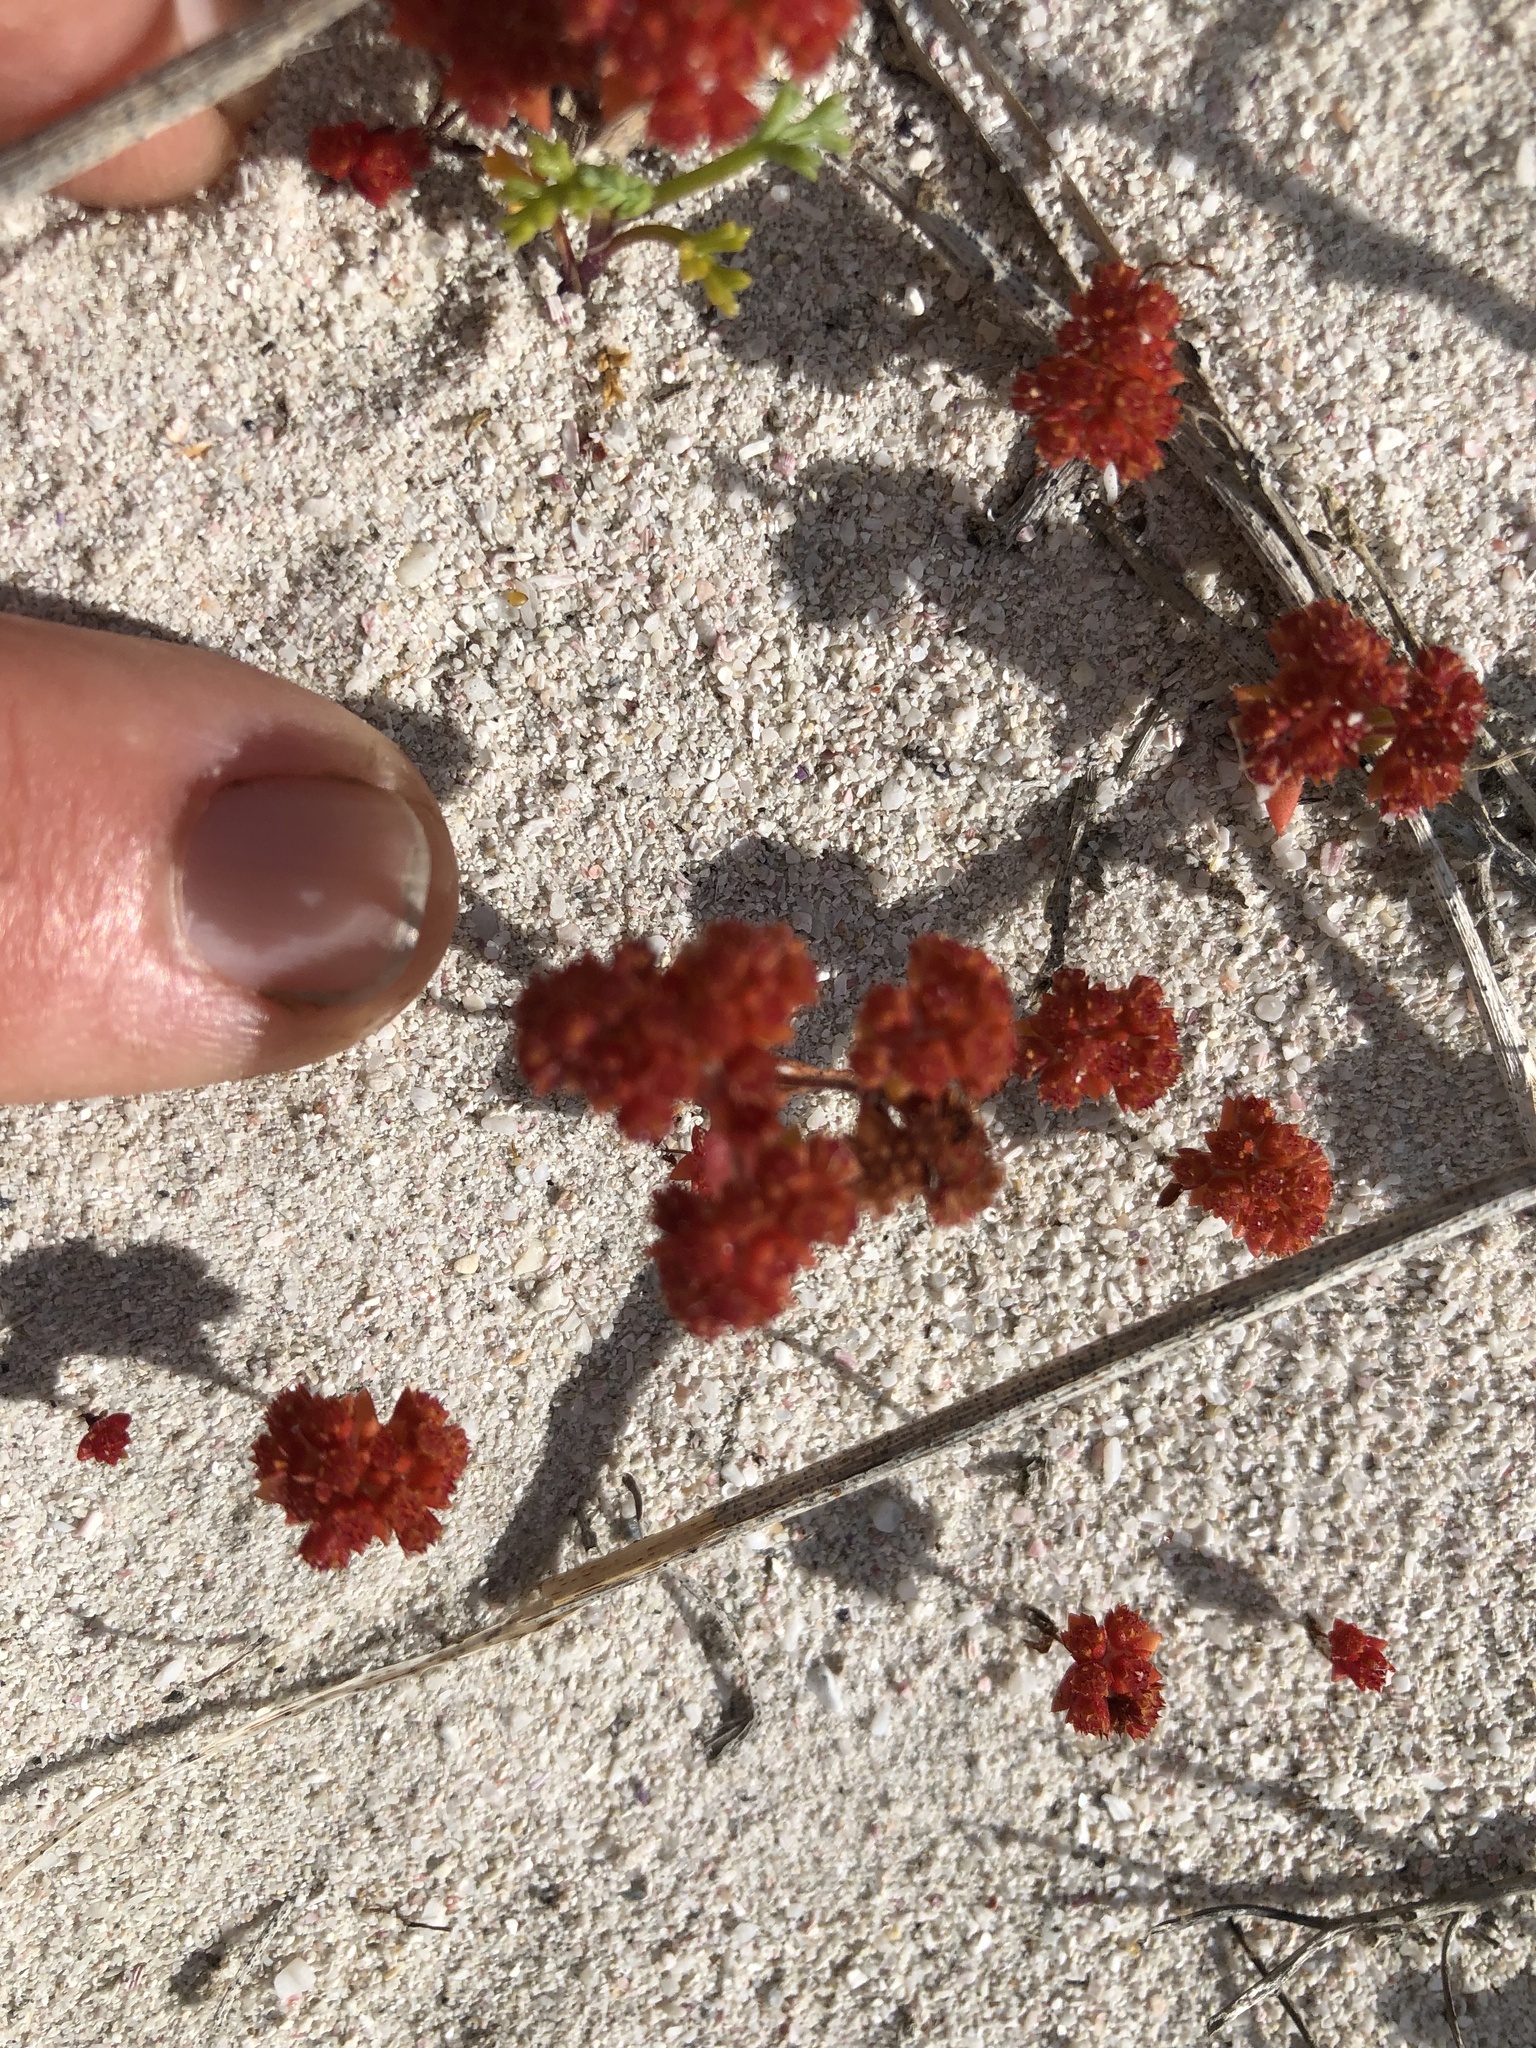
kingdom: Plantae
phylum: Tracheophyta
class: Magnoliopsida
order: Saxifragales
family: Crassulaceae
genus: Crassula
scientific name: Crassula glomerata
